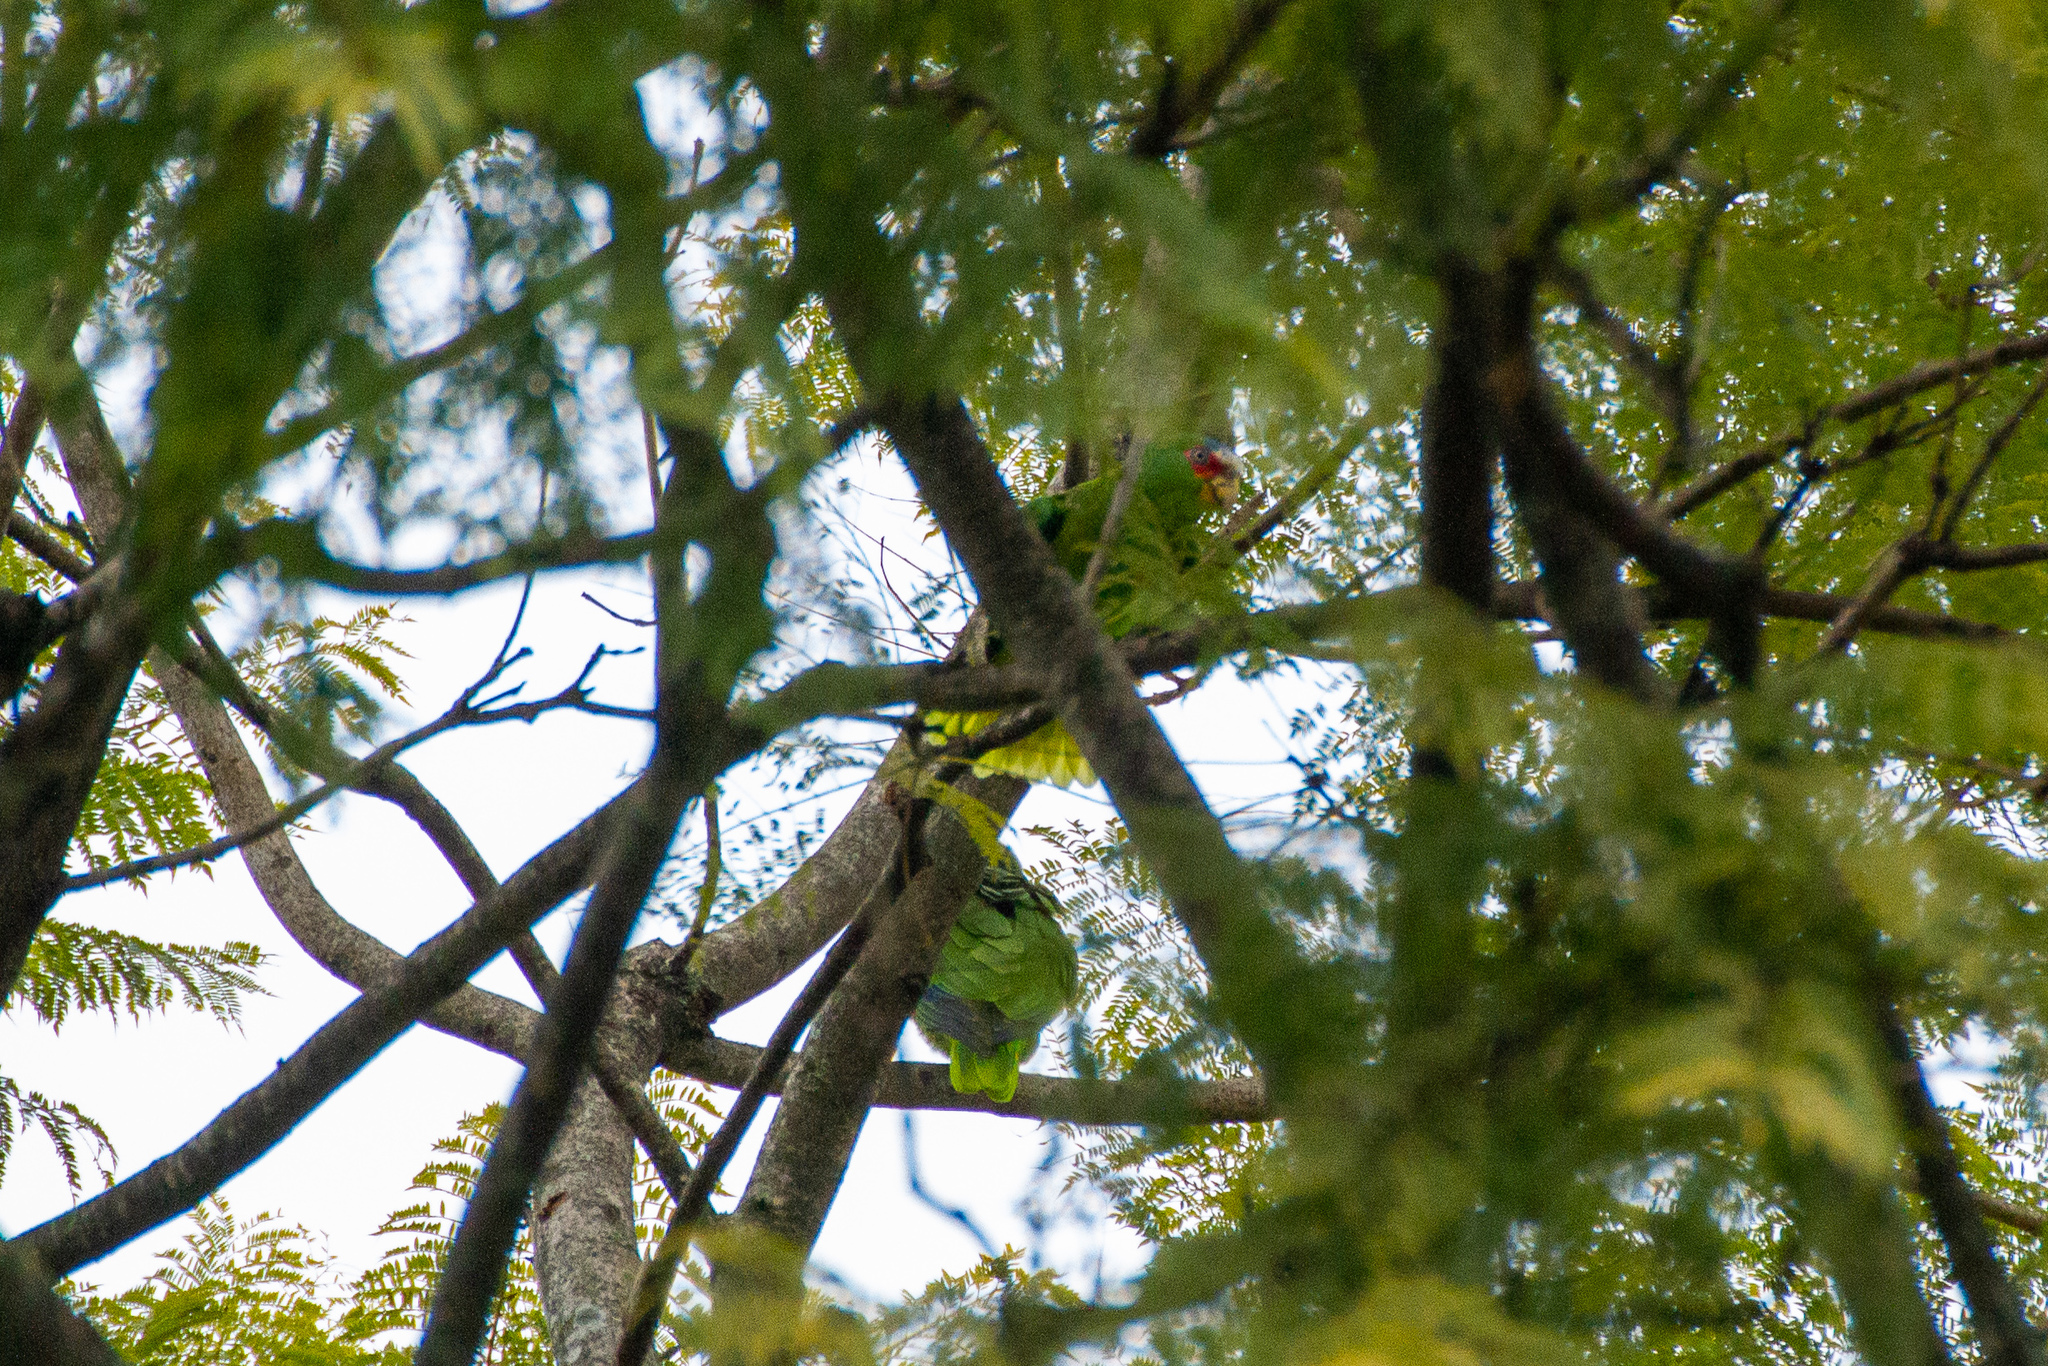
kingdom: Animalia
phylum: Chordata
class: Aves
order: Psittaciformes
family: Psittacidae
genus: Amazona
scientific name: Amazona albifrons
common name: White-fronted amazon
